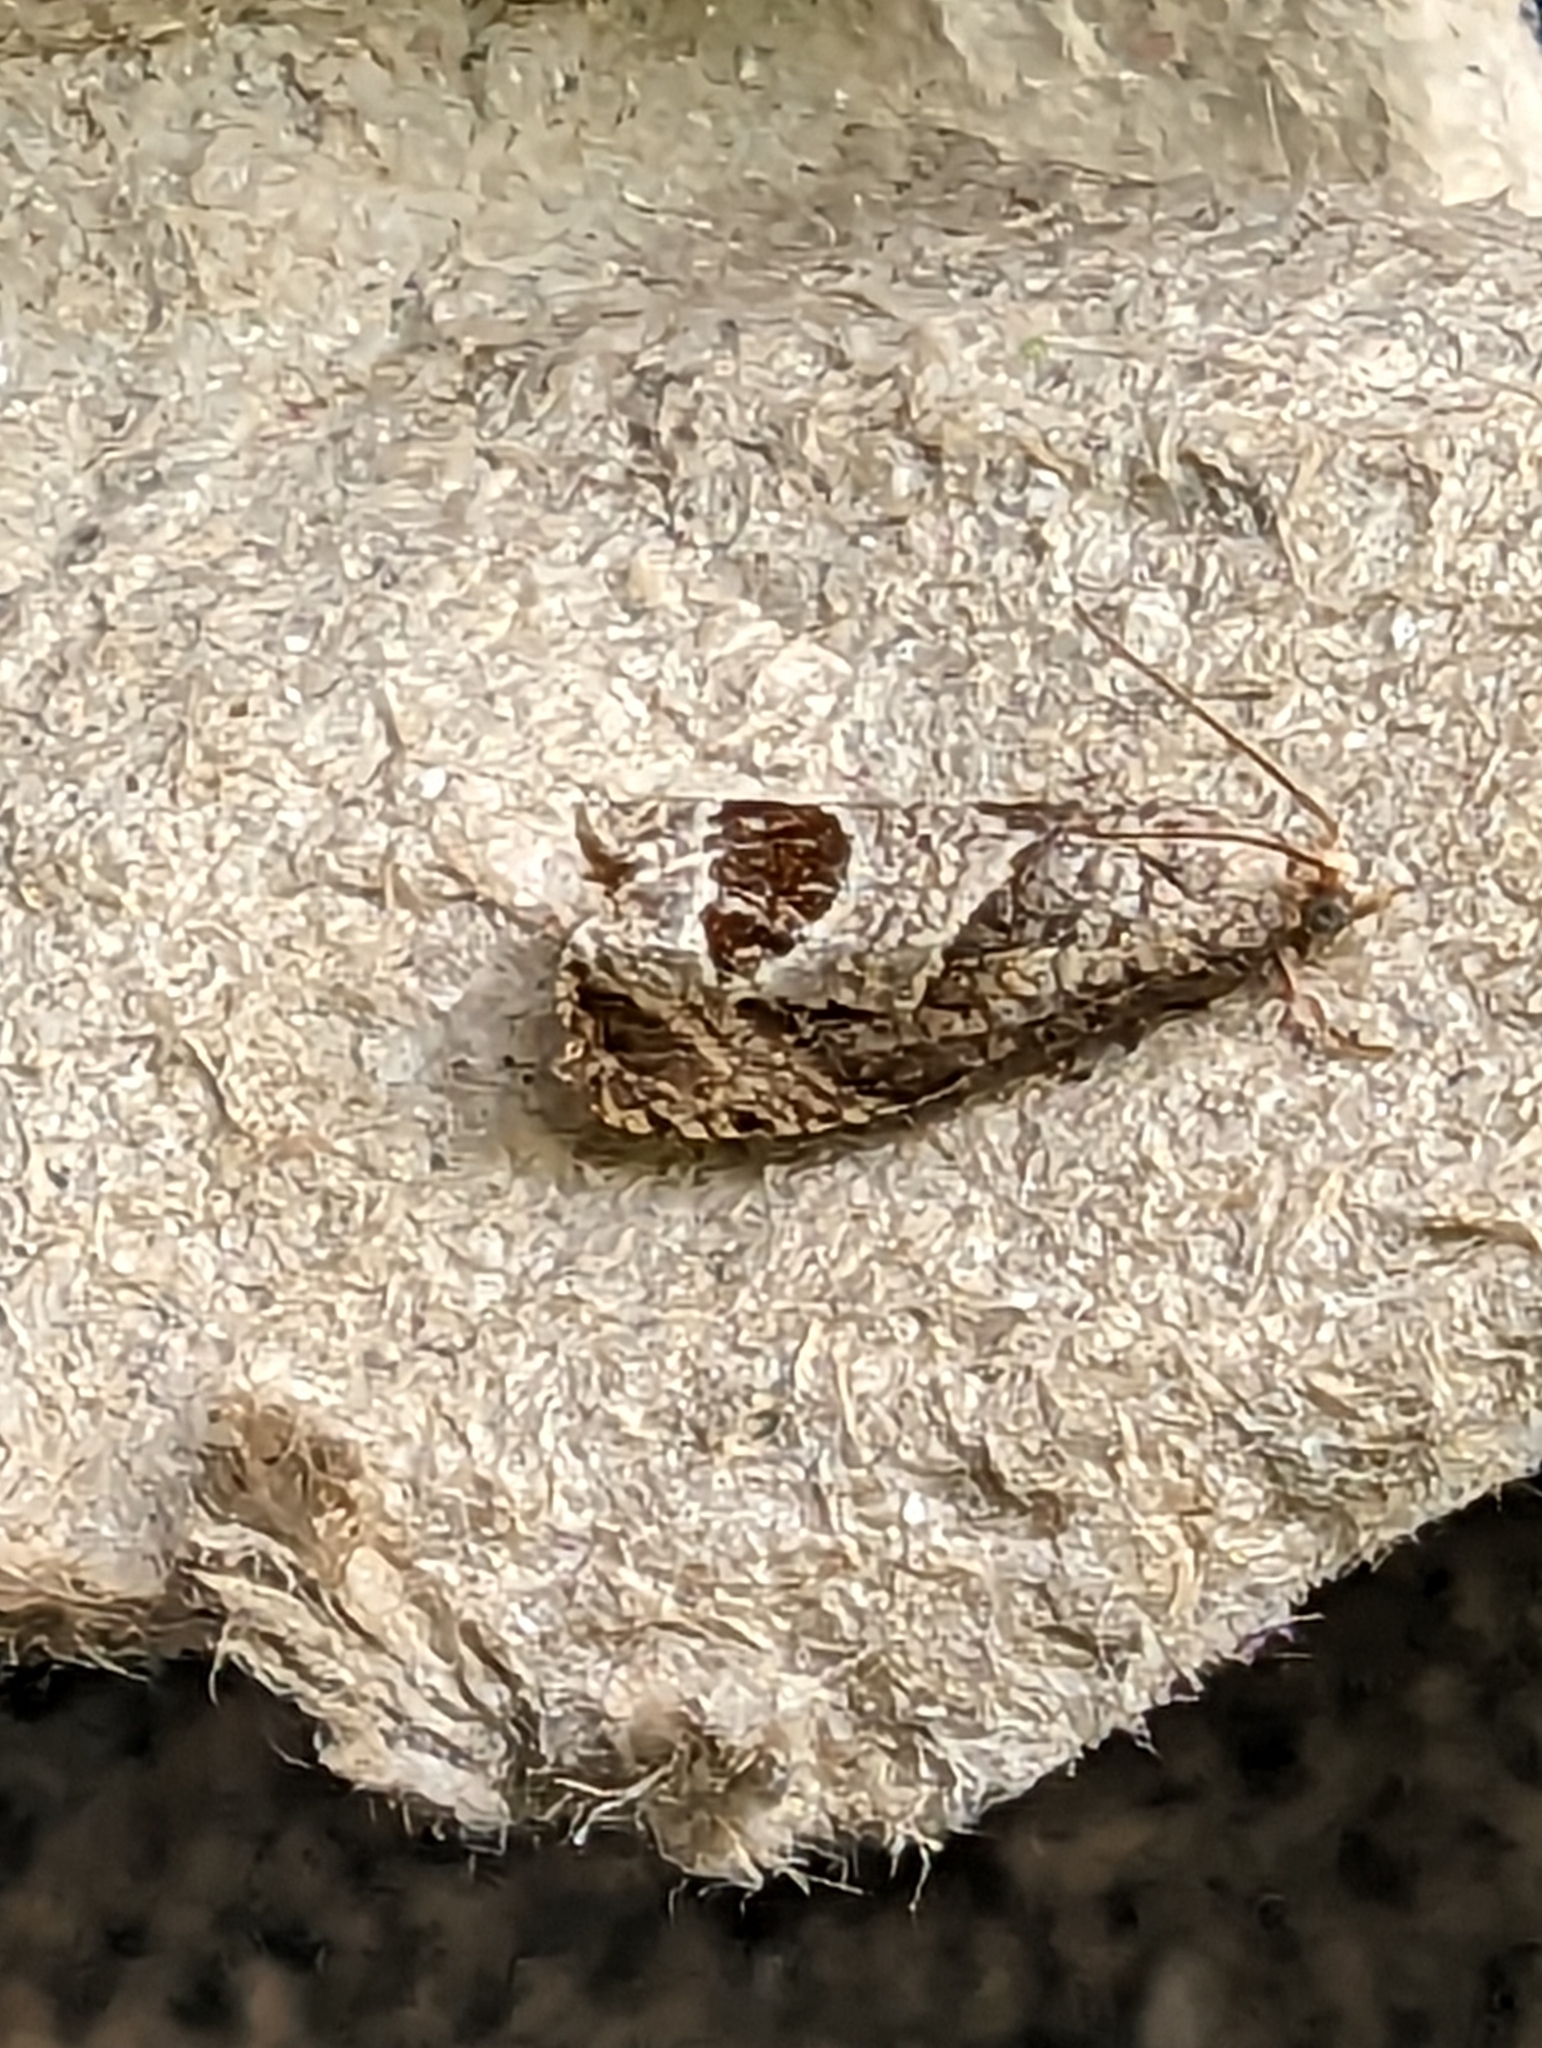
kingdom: Animalia
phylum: Arthropoda
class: Insecta
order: Lepidoptera
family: Tortricidae
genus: Notocelia
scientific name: Notocelia uddmanniana
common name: Bramble shoot moth
